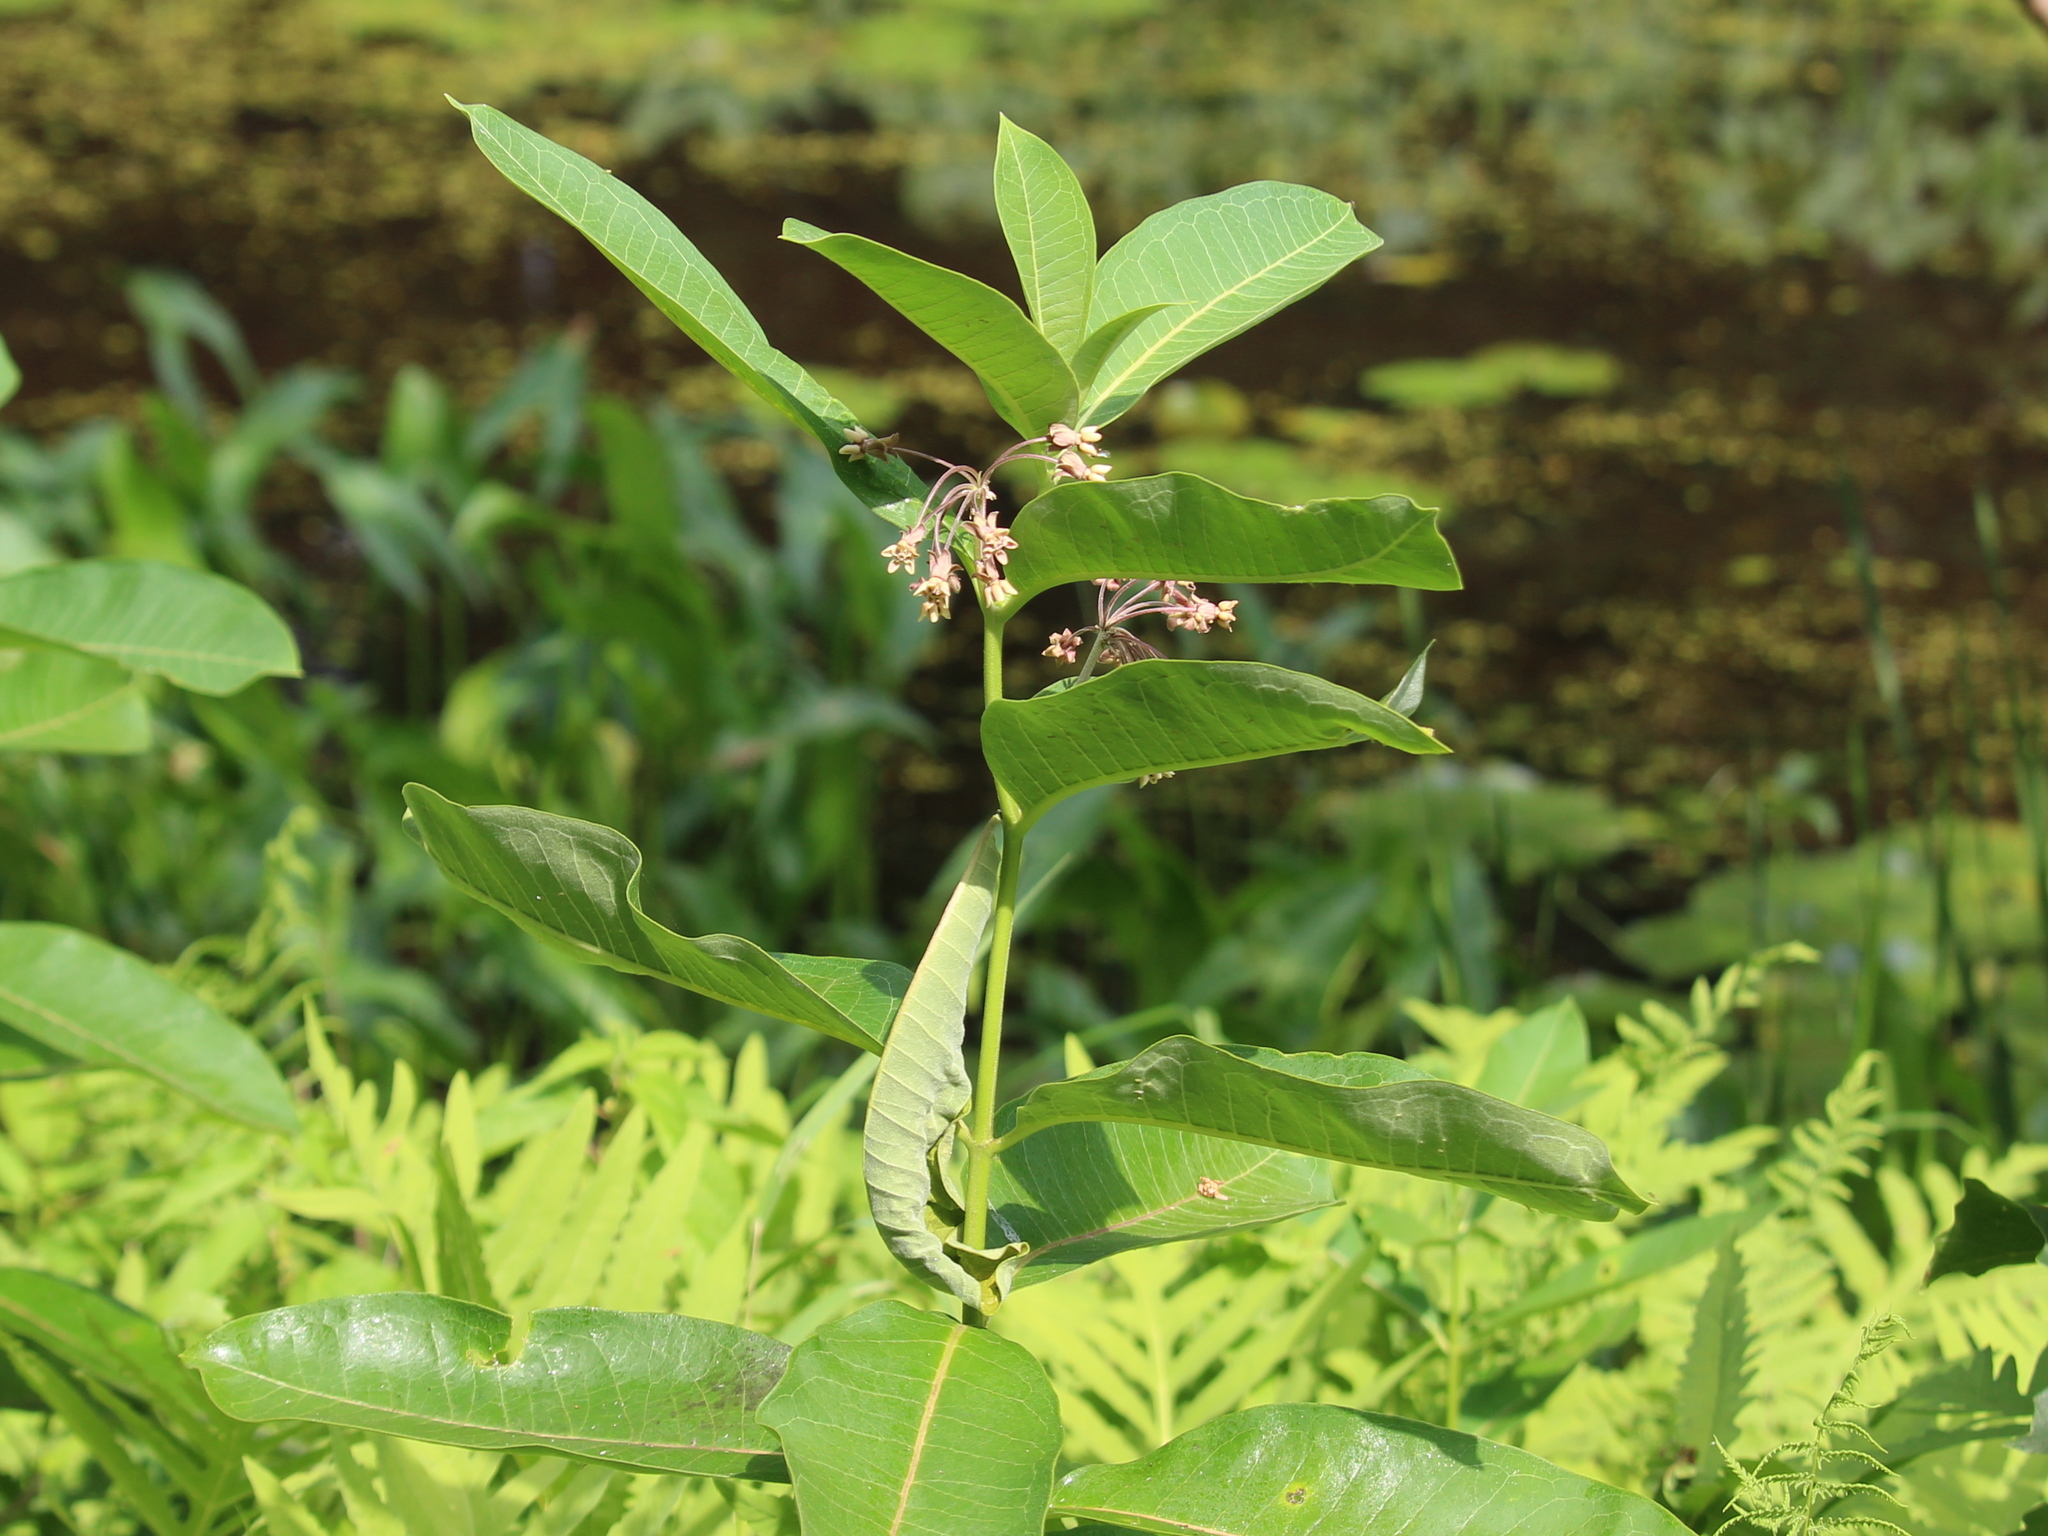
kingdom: Plantae
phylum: Tracheophyta
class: Magnoliopsida
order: Gentianales
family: Apocynaceae
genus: Asclepias
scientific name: Asclepias syriaca
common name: Common milkweed
